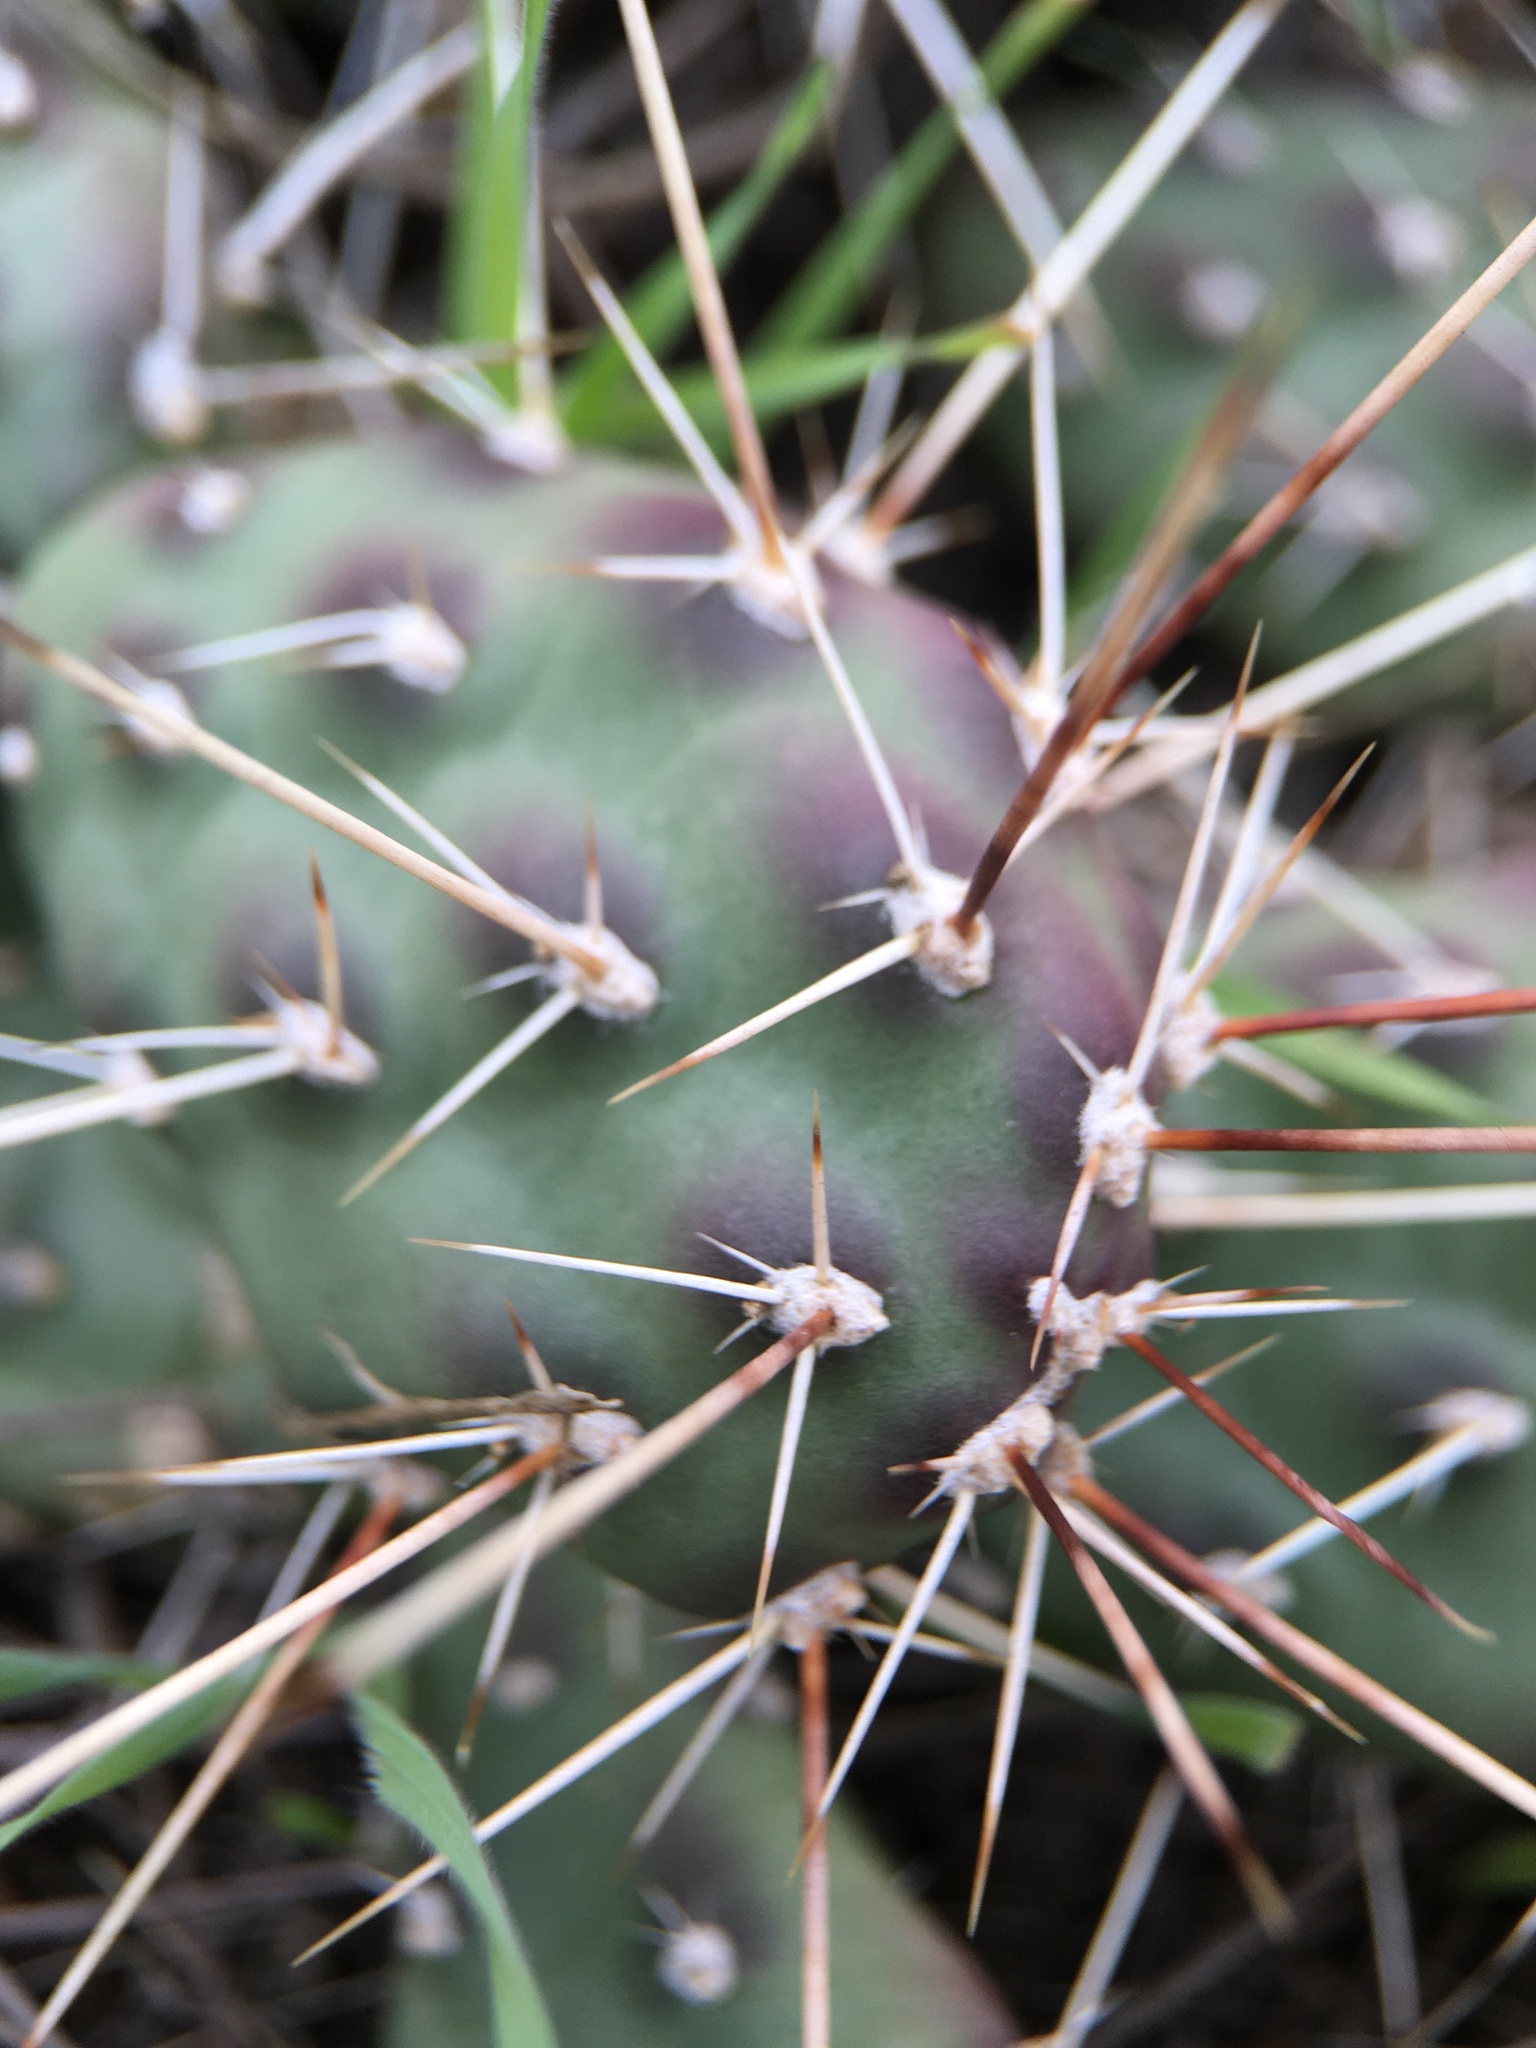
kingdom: Plantae
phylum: Tracheophyta
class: Magnoliopsida
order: Caryophyllales
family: Cactaceae
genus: Opuntia
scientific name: Opuntia fragilis
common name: Brittle cactus
